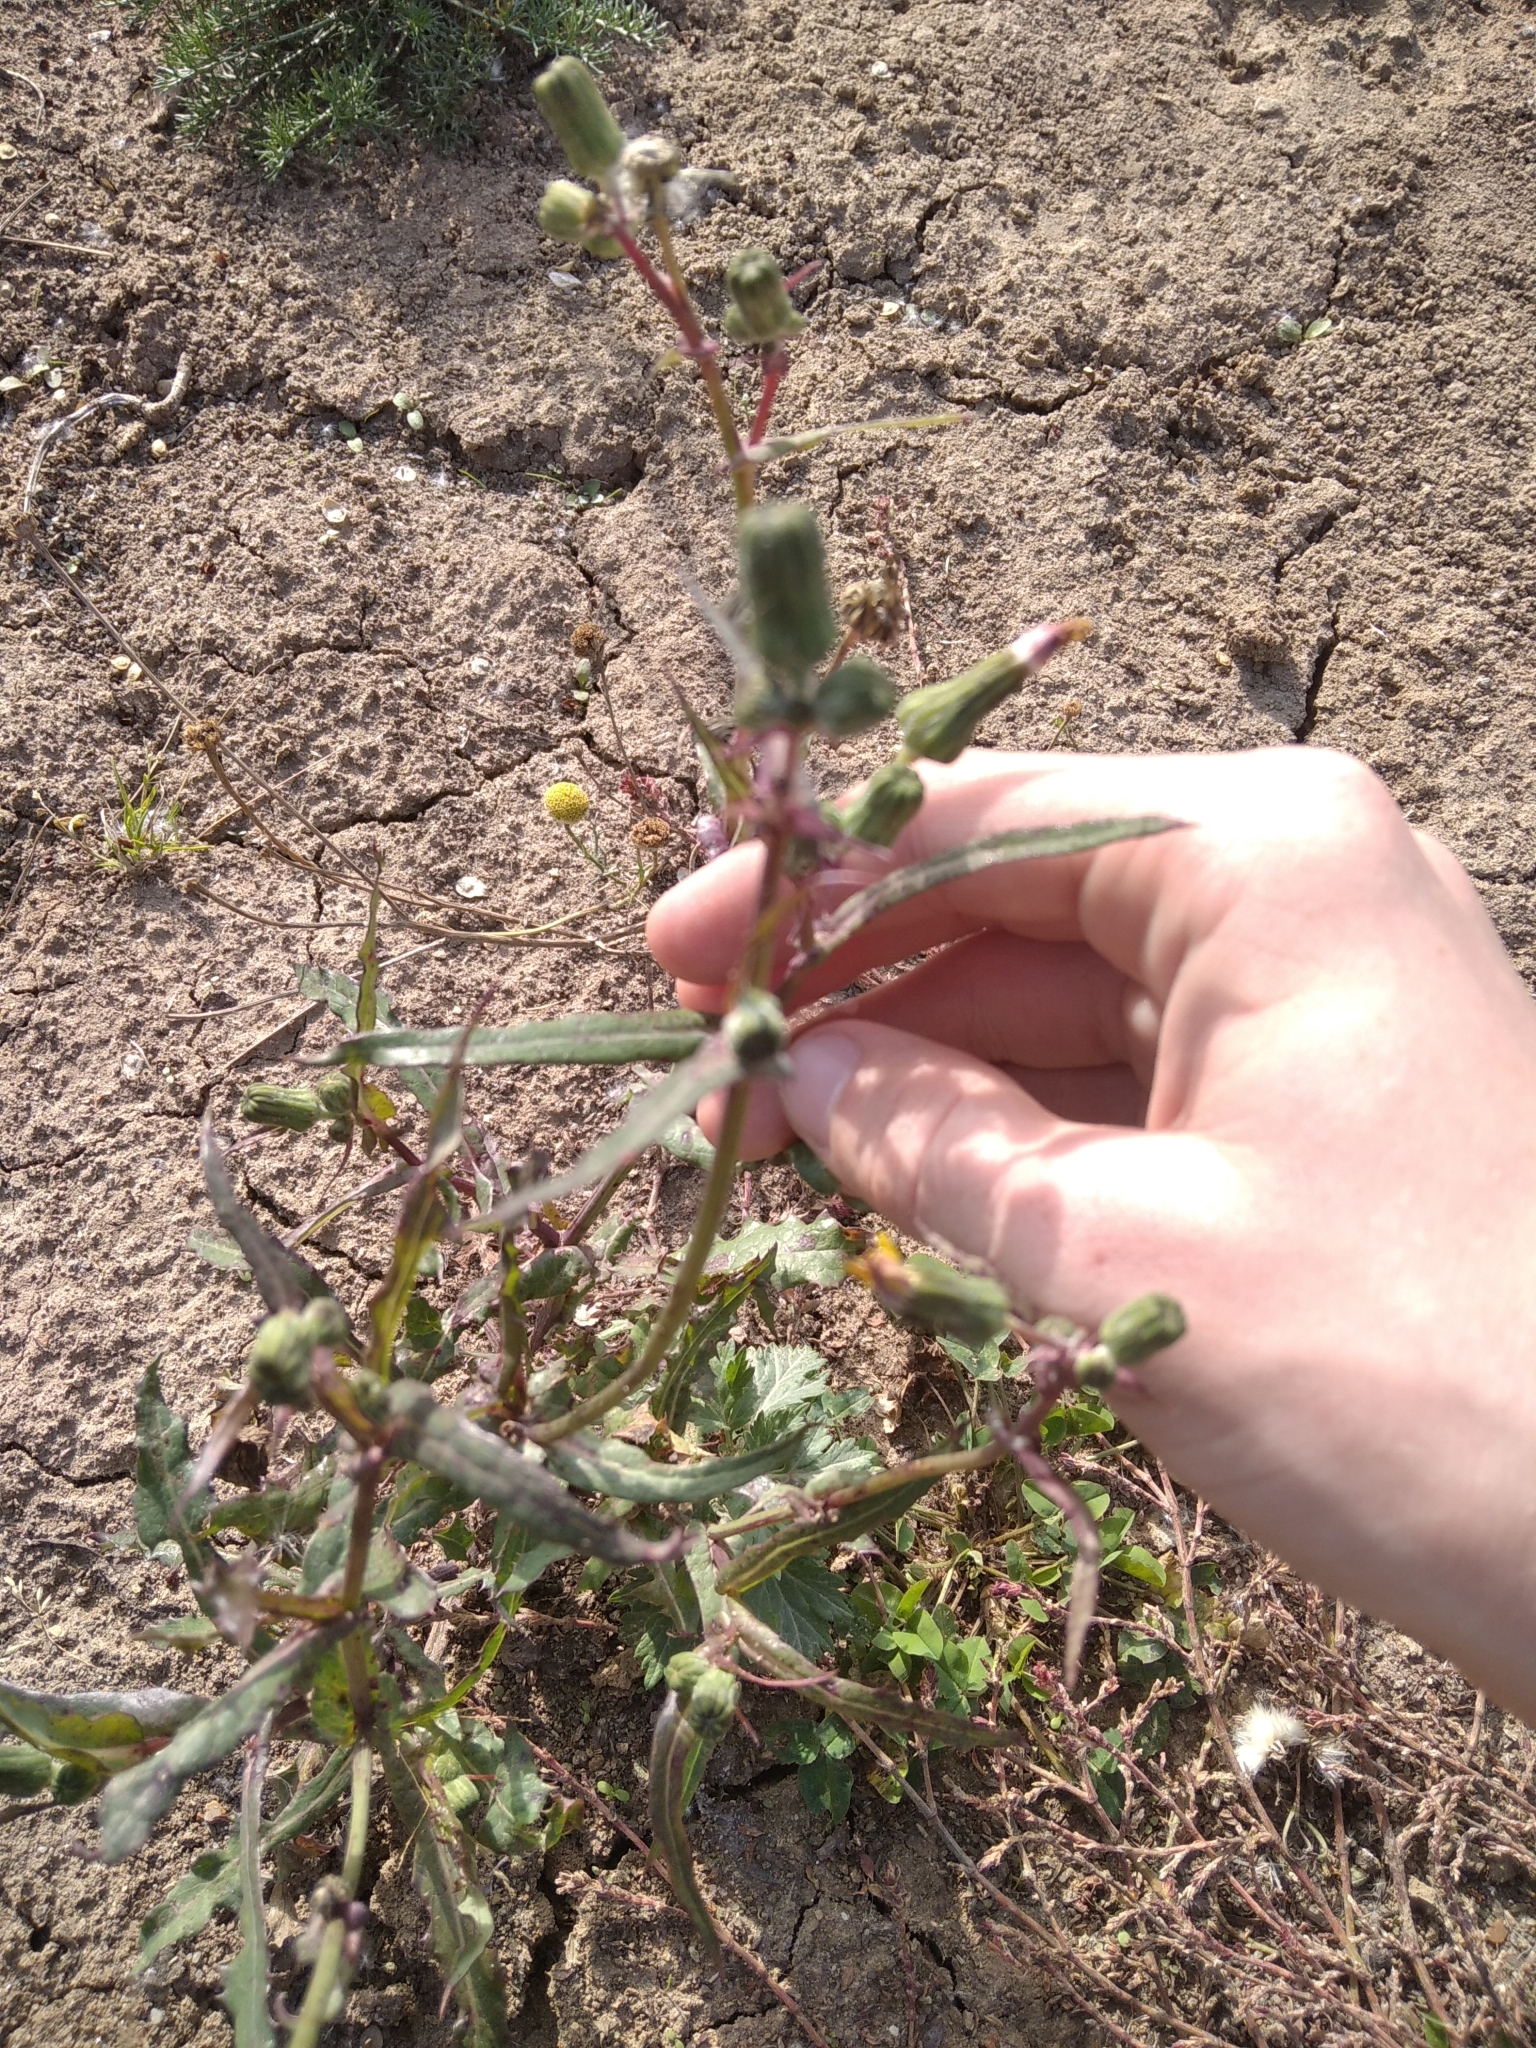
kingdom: Plantae
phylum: Tracheophyta
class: Magnoliopsida
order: Asterales
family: Asteraceae
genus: Sonchus
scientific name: Sonchus oleraceus
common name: Common sowthistle
